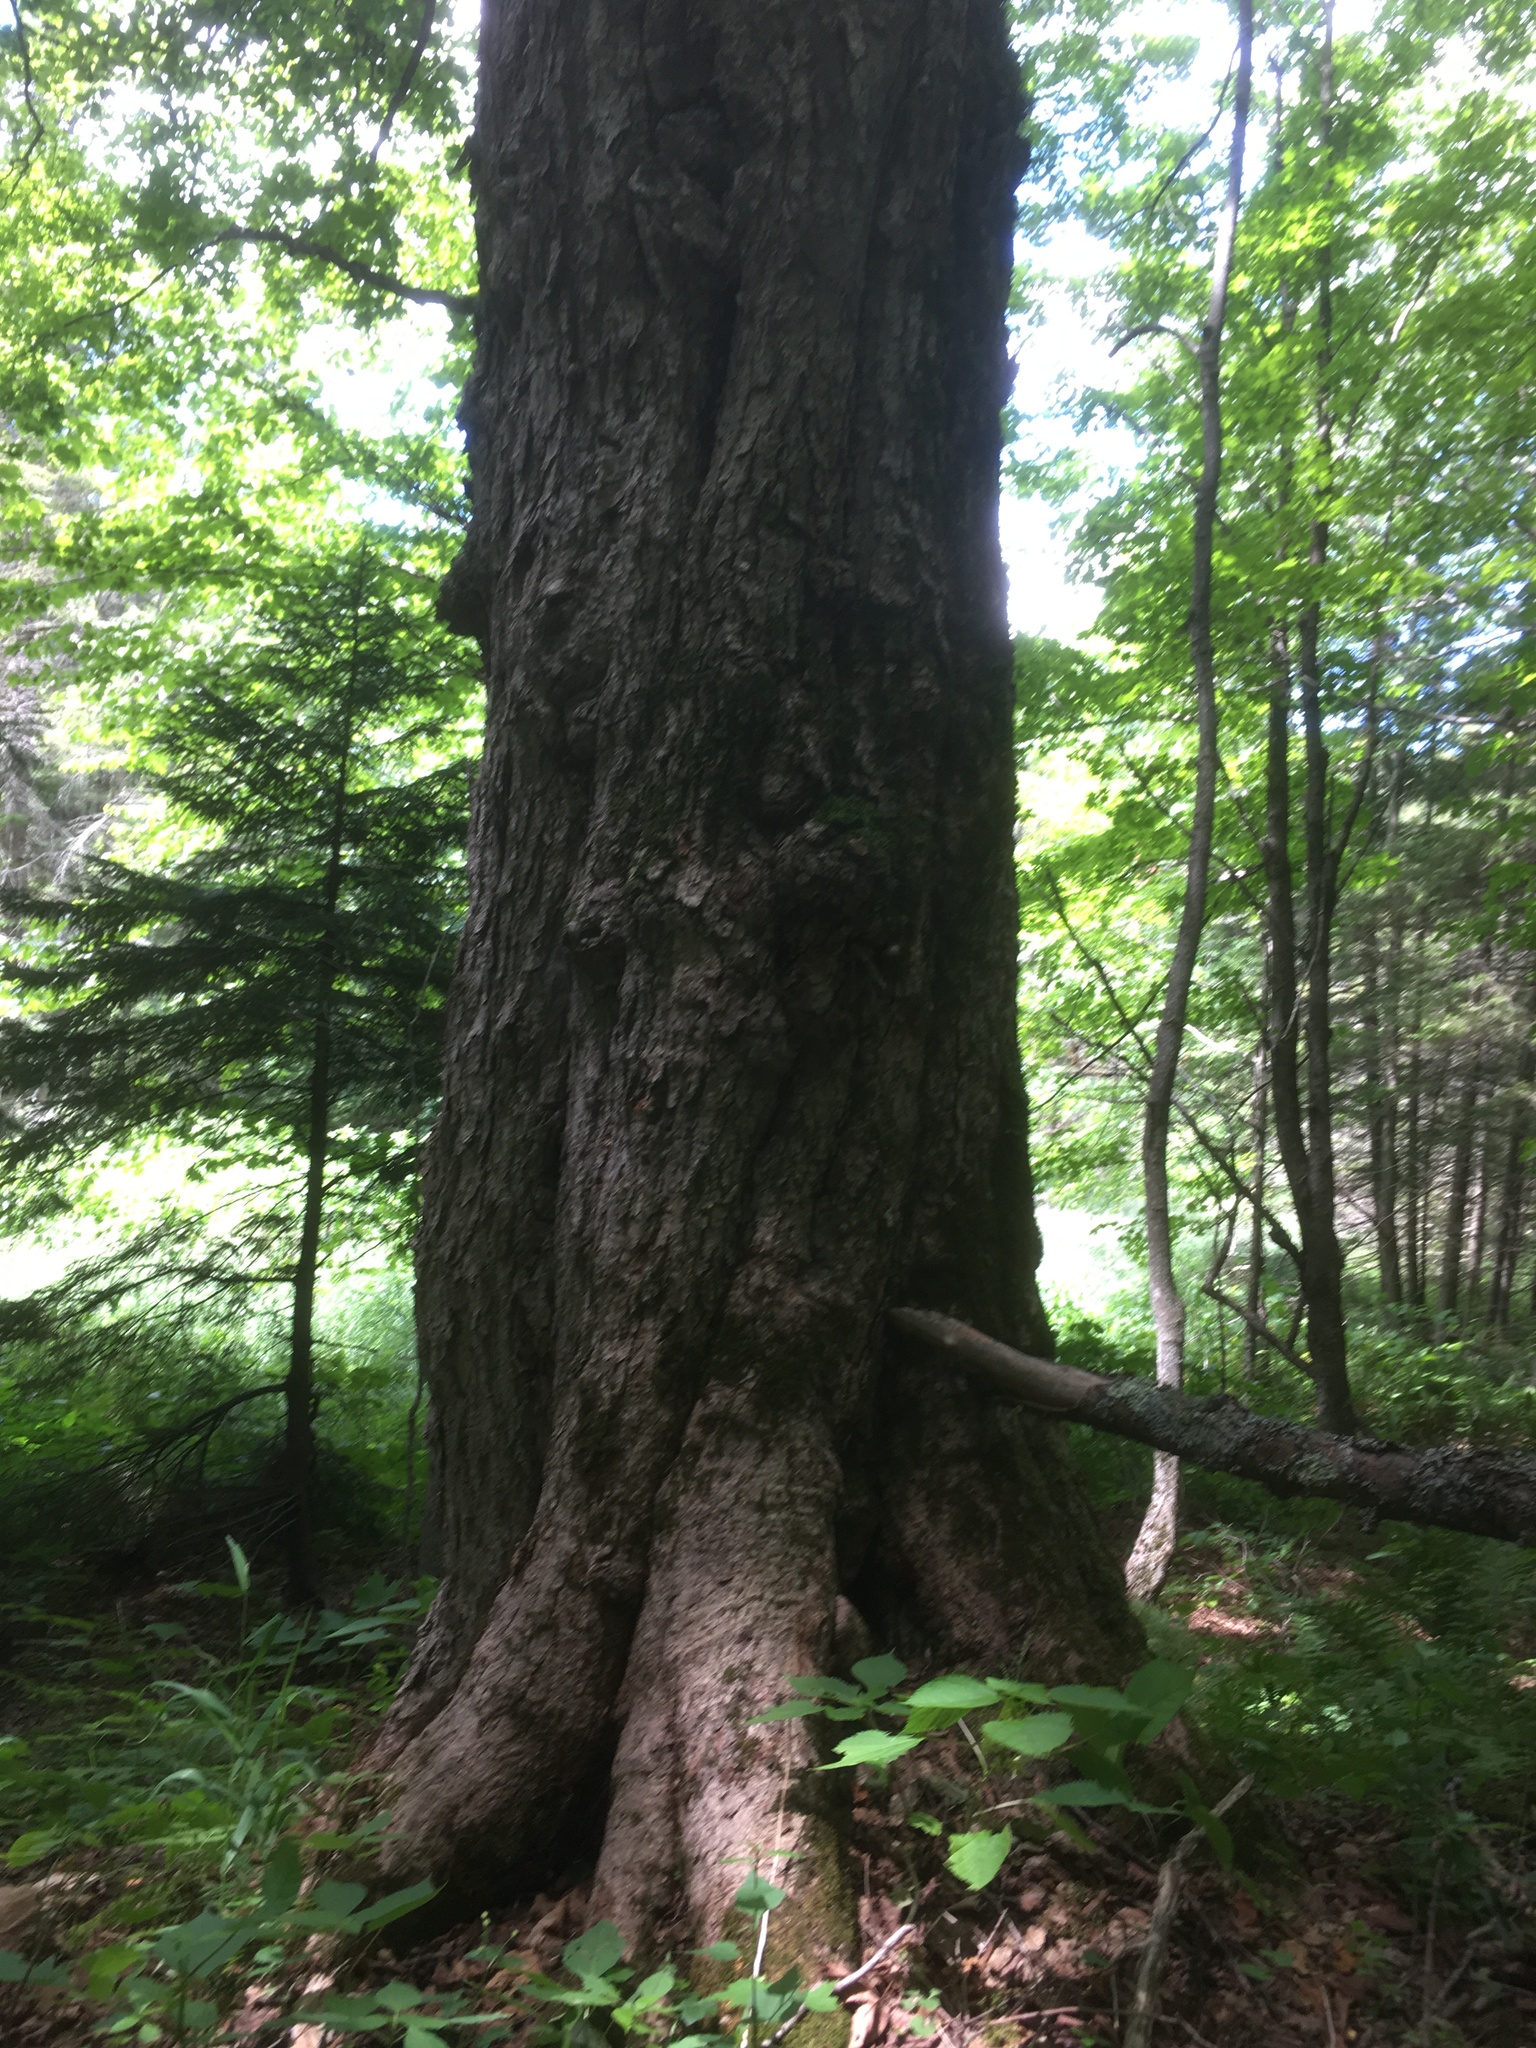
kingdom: Plantae
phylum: Tracheophyta
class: Magnoliopsida
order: Sapindales
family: Sapindaceae
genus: Acer
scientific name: Acer saccharum
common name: Sugar maple
